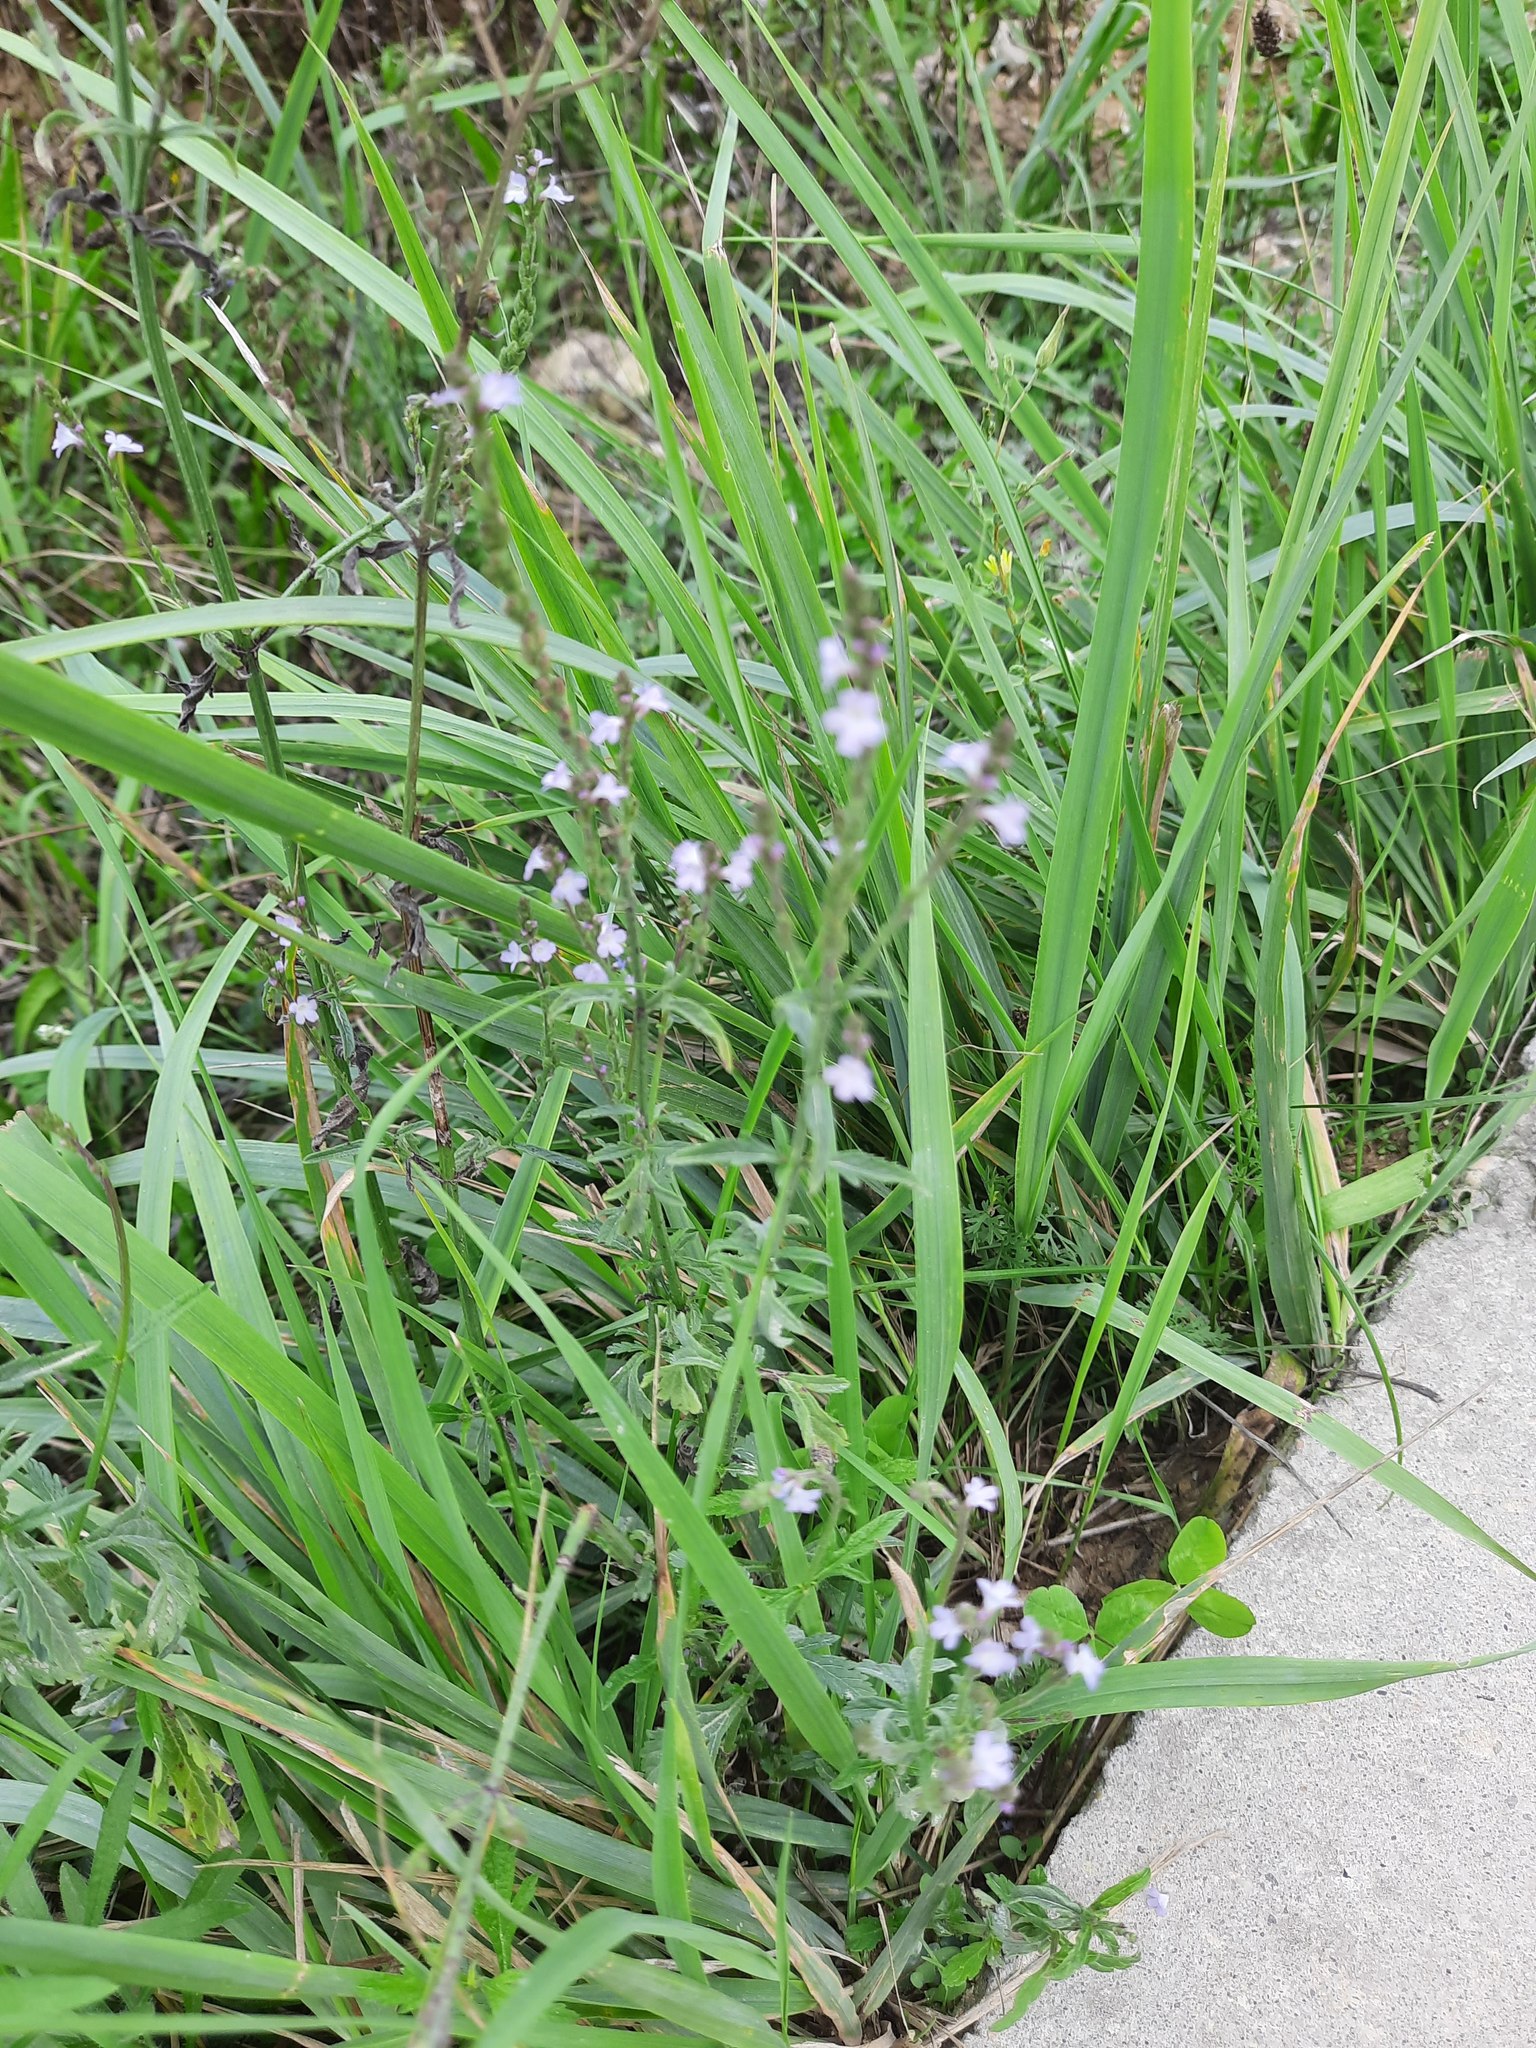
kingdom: Plantae
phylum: Tracheophyta
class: Magnoliopsida
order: Lamiales
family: Verbenaceae
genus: Verbena
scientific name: Verbena officinalis
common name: Vervain
